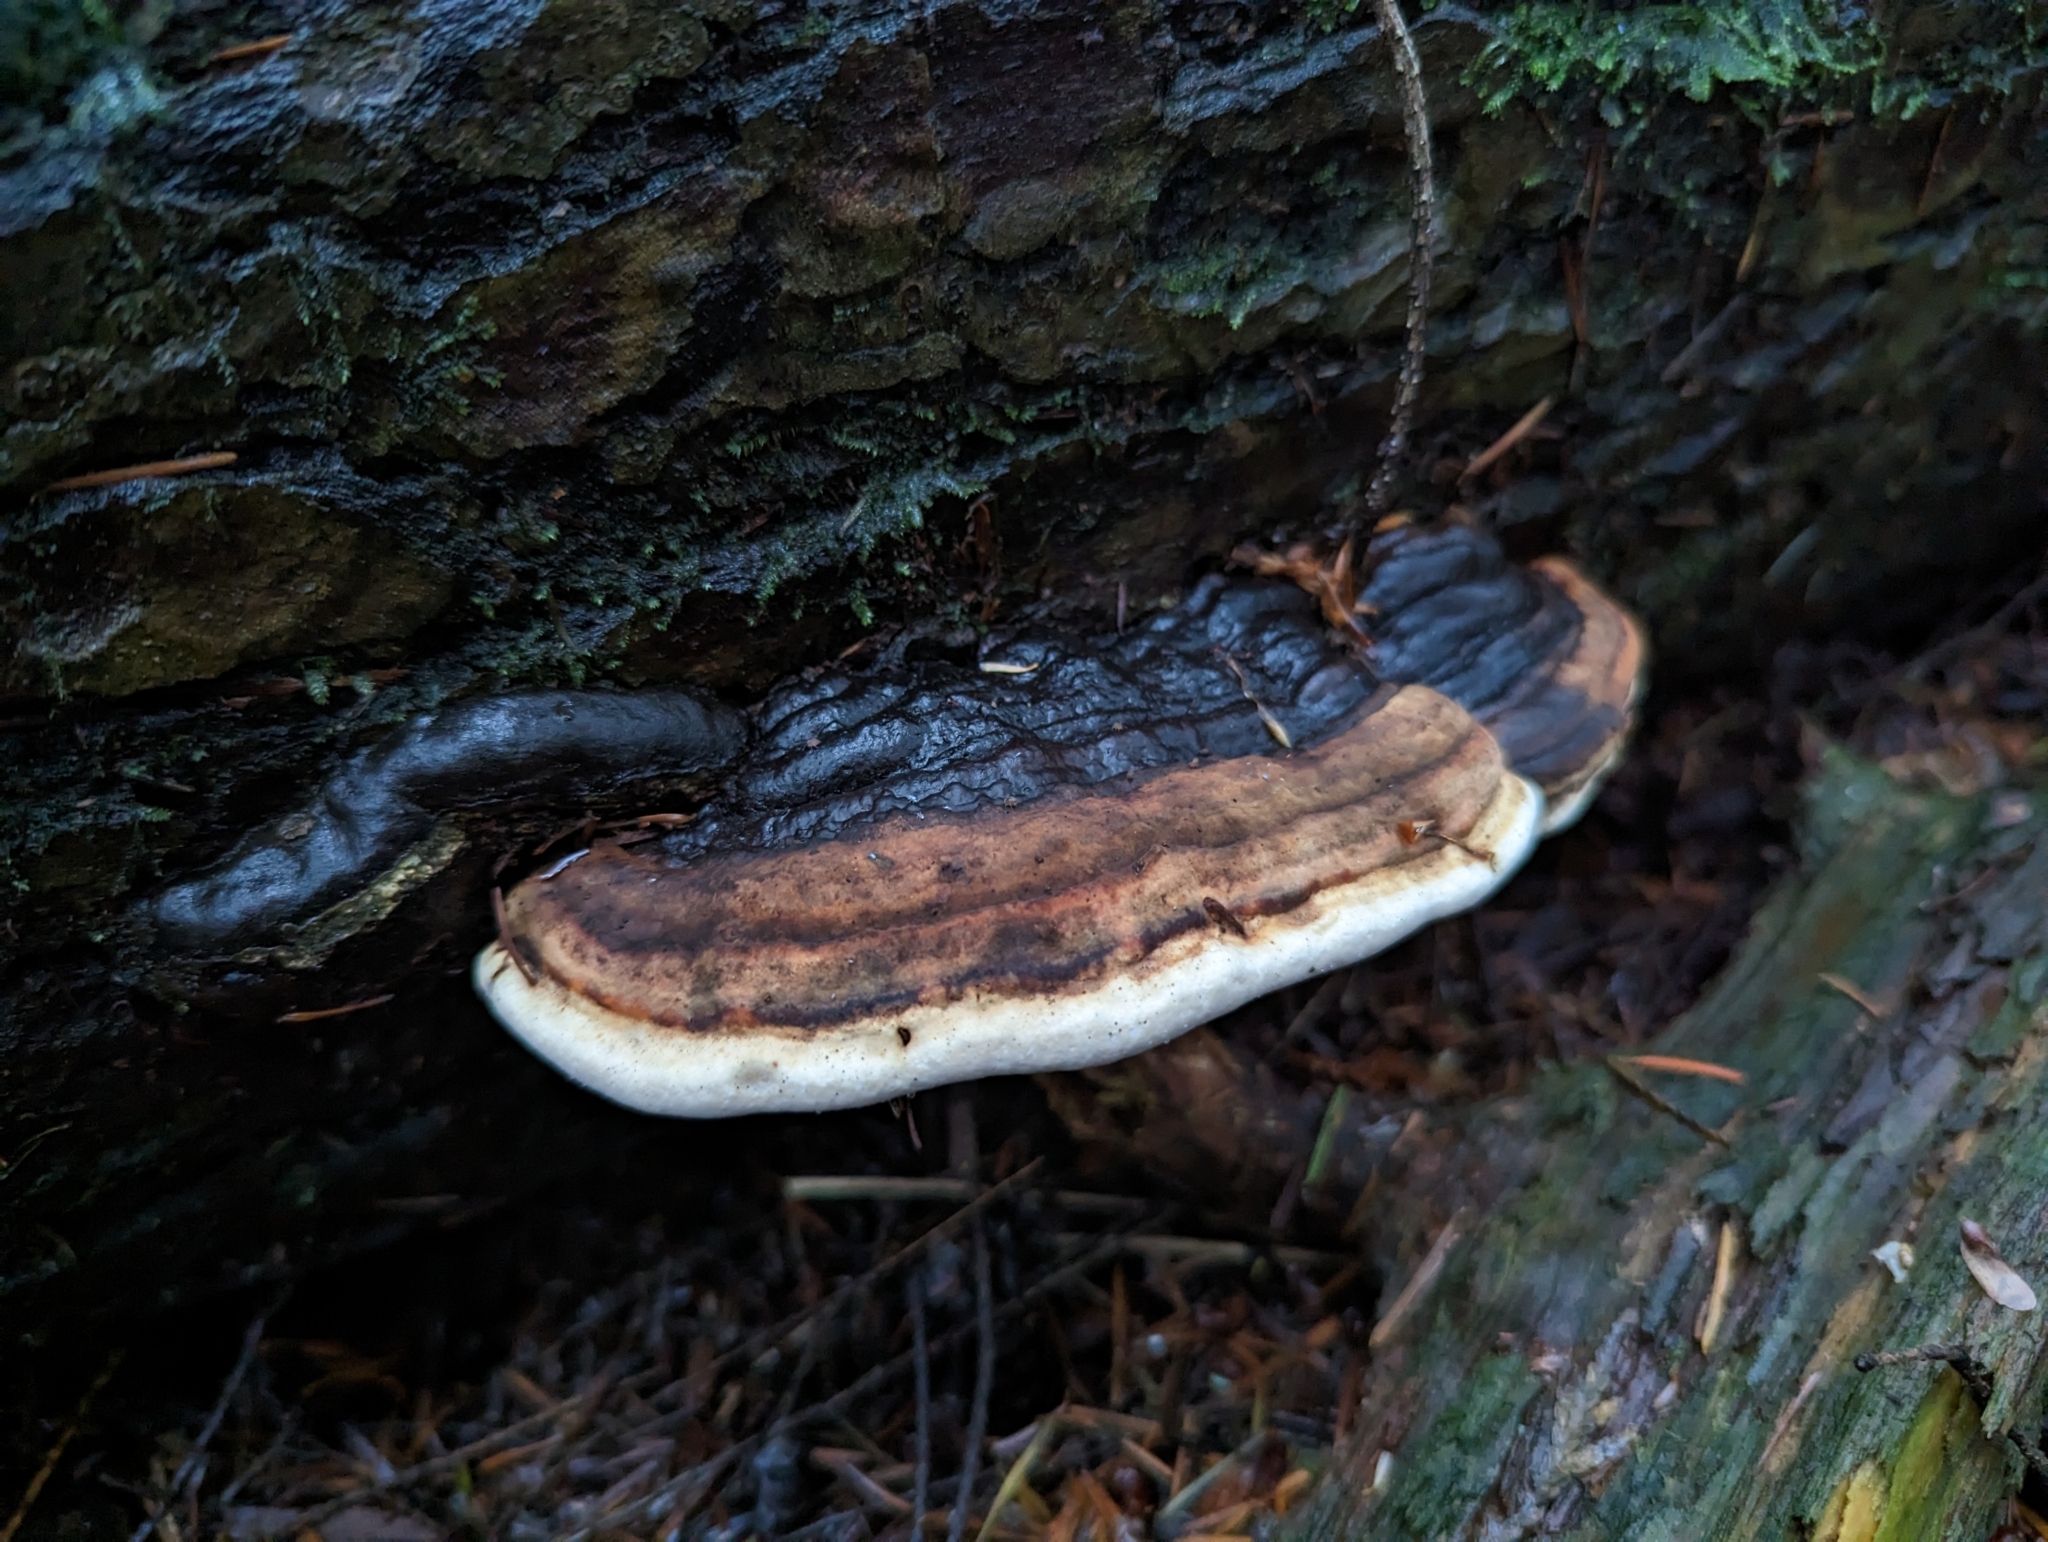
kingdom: Fungi
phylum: Basidiomycota
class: Agaricomycetes
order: Polyporales
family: Fomitopsidaceae
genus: Fomitopsis
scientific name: Fomitopsis mounceae
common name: Northern red belt
